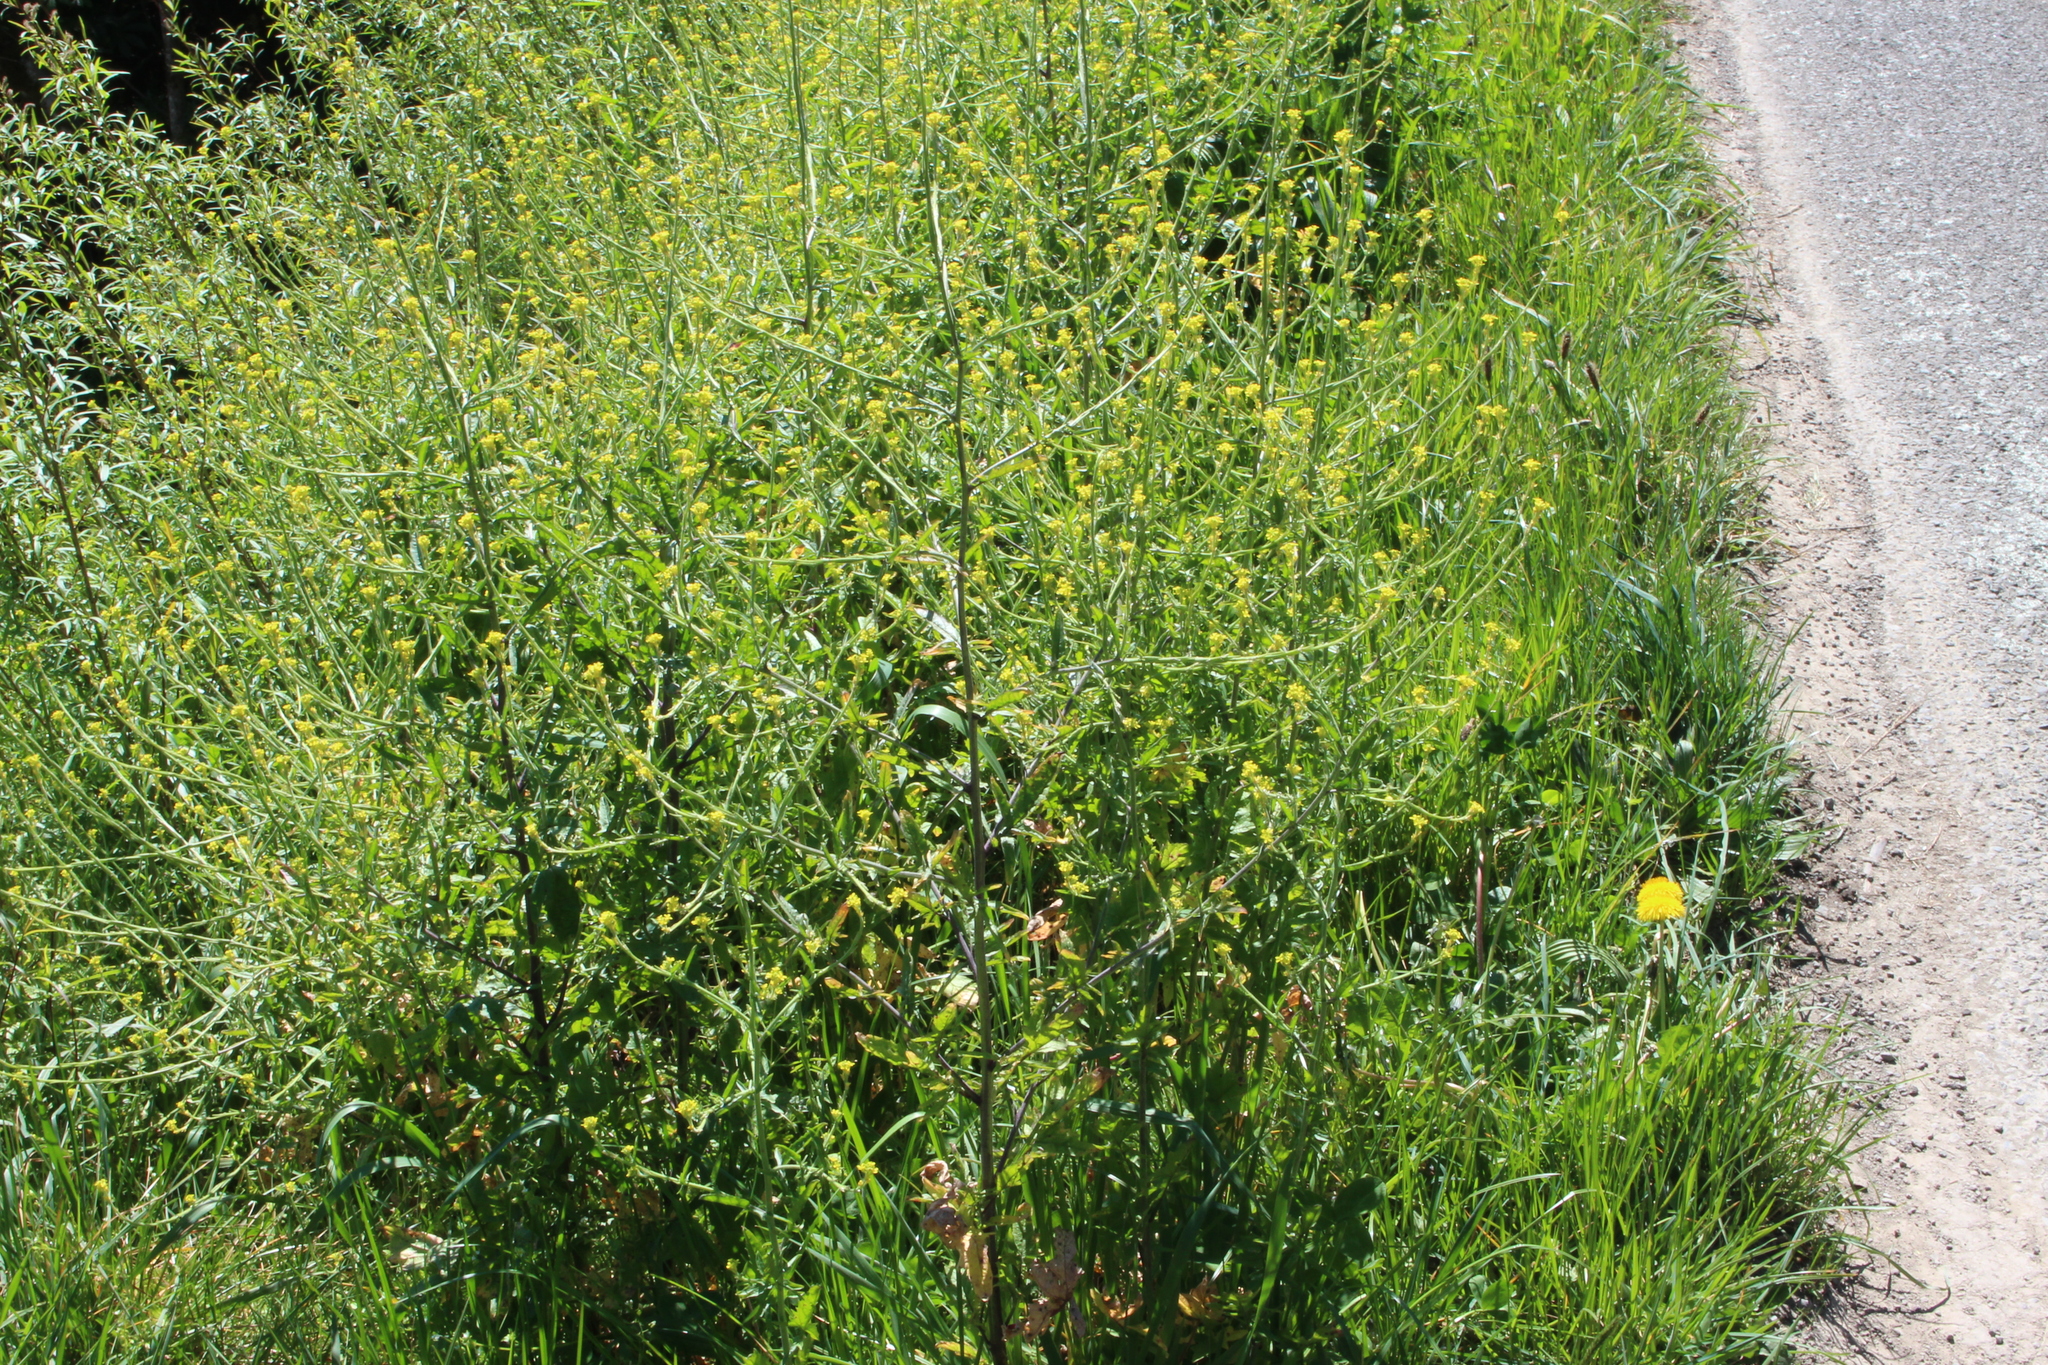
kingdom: Plantae
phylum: Tracheophyta
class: Magnoliopsida
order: Brassicales
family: Brassicaceae
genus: Sisymbrium
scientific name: Sisymbrium officinale
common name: Hedge mustard
